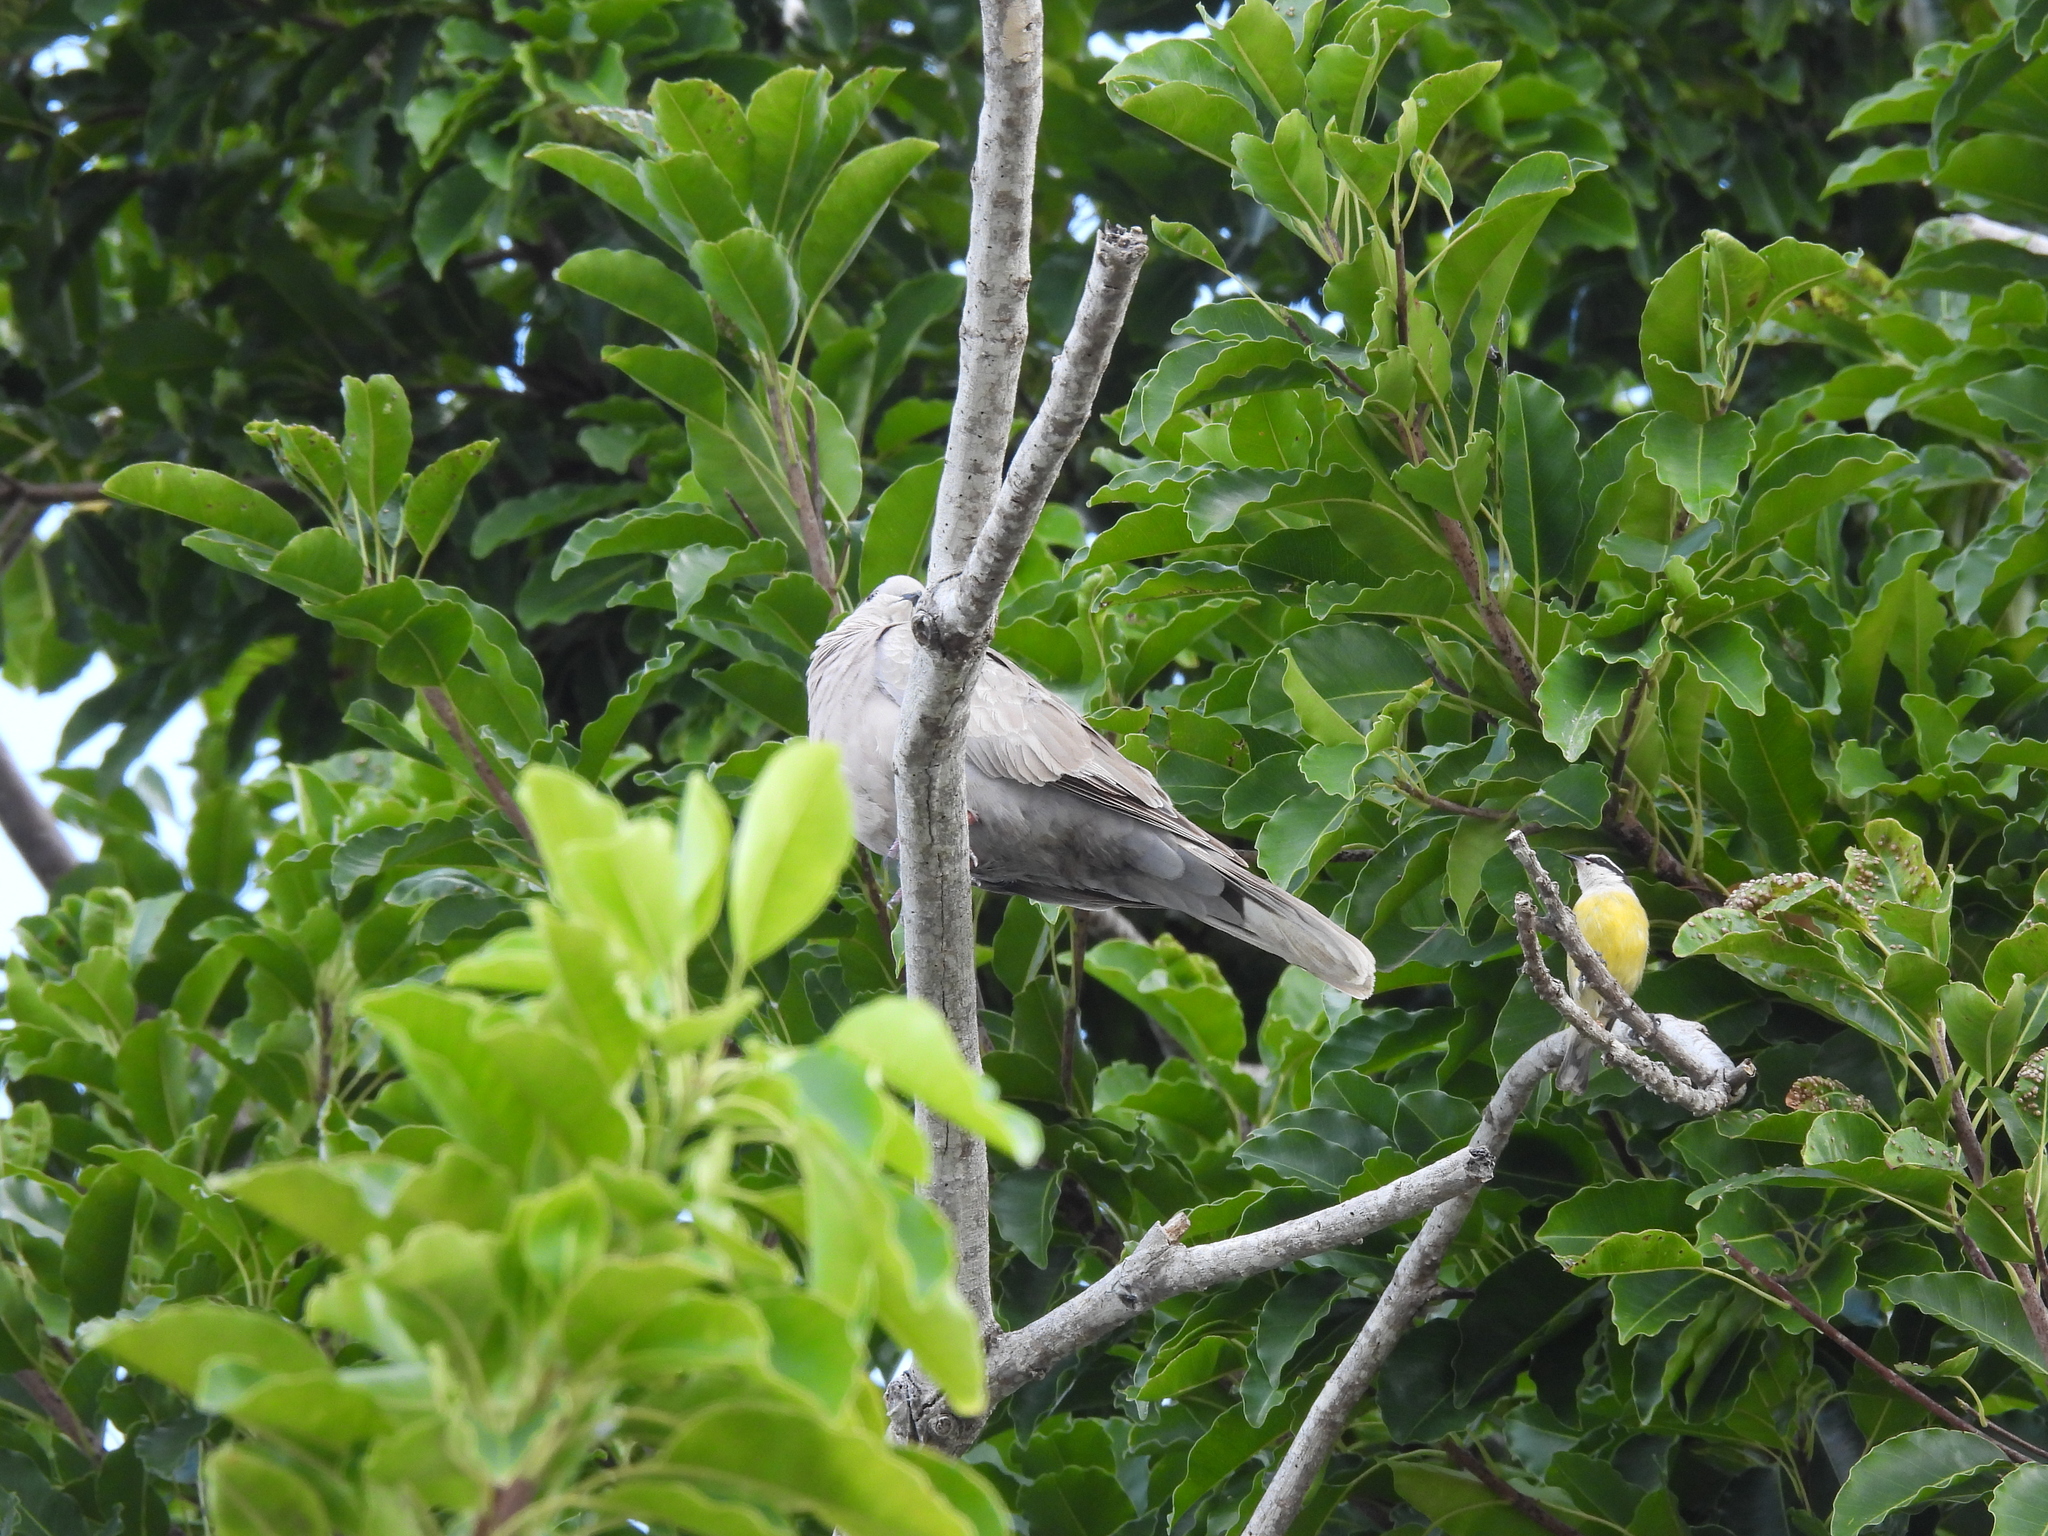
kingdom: Animalia
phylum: Chordata
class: Aves
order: Columbiformes
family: Columbidae
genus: Streptopelia
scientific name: Streptopelia decaocto
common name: Eurasian collared dove
